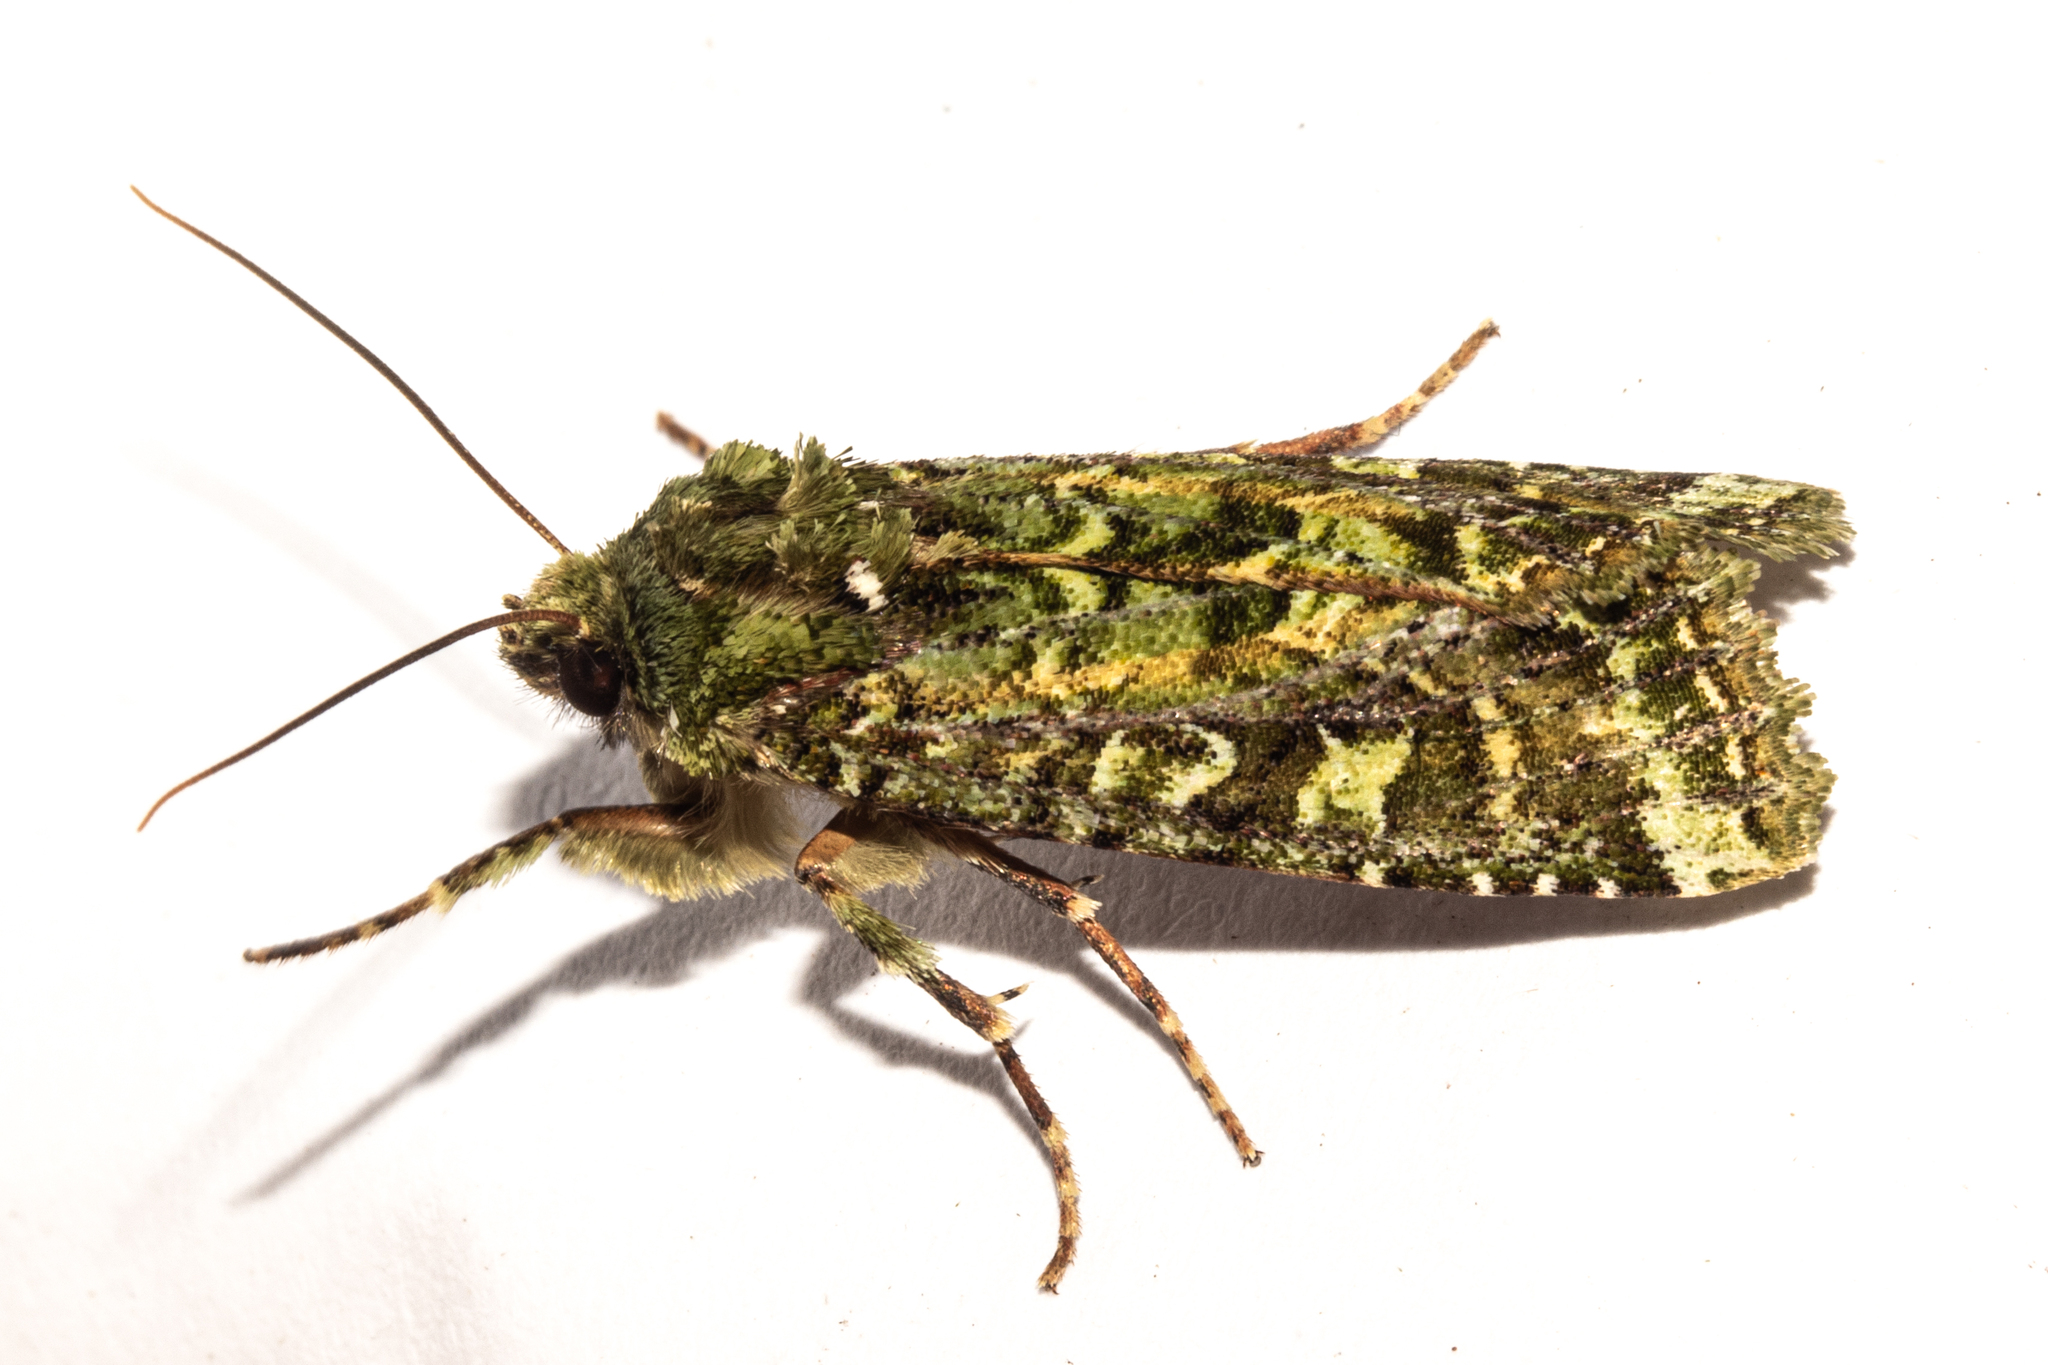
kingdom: Animalia
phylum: Arthropoda
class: Insecta
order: Lepidoptera
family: Noctuidae
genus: Feredayia
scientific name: Feredayia grammosa
